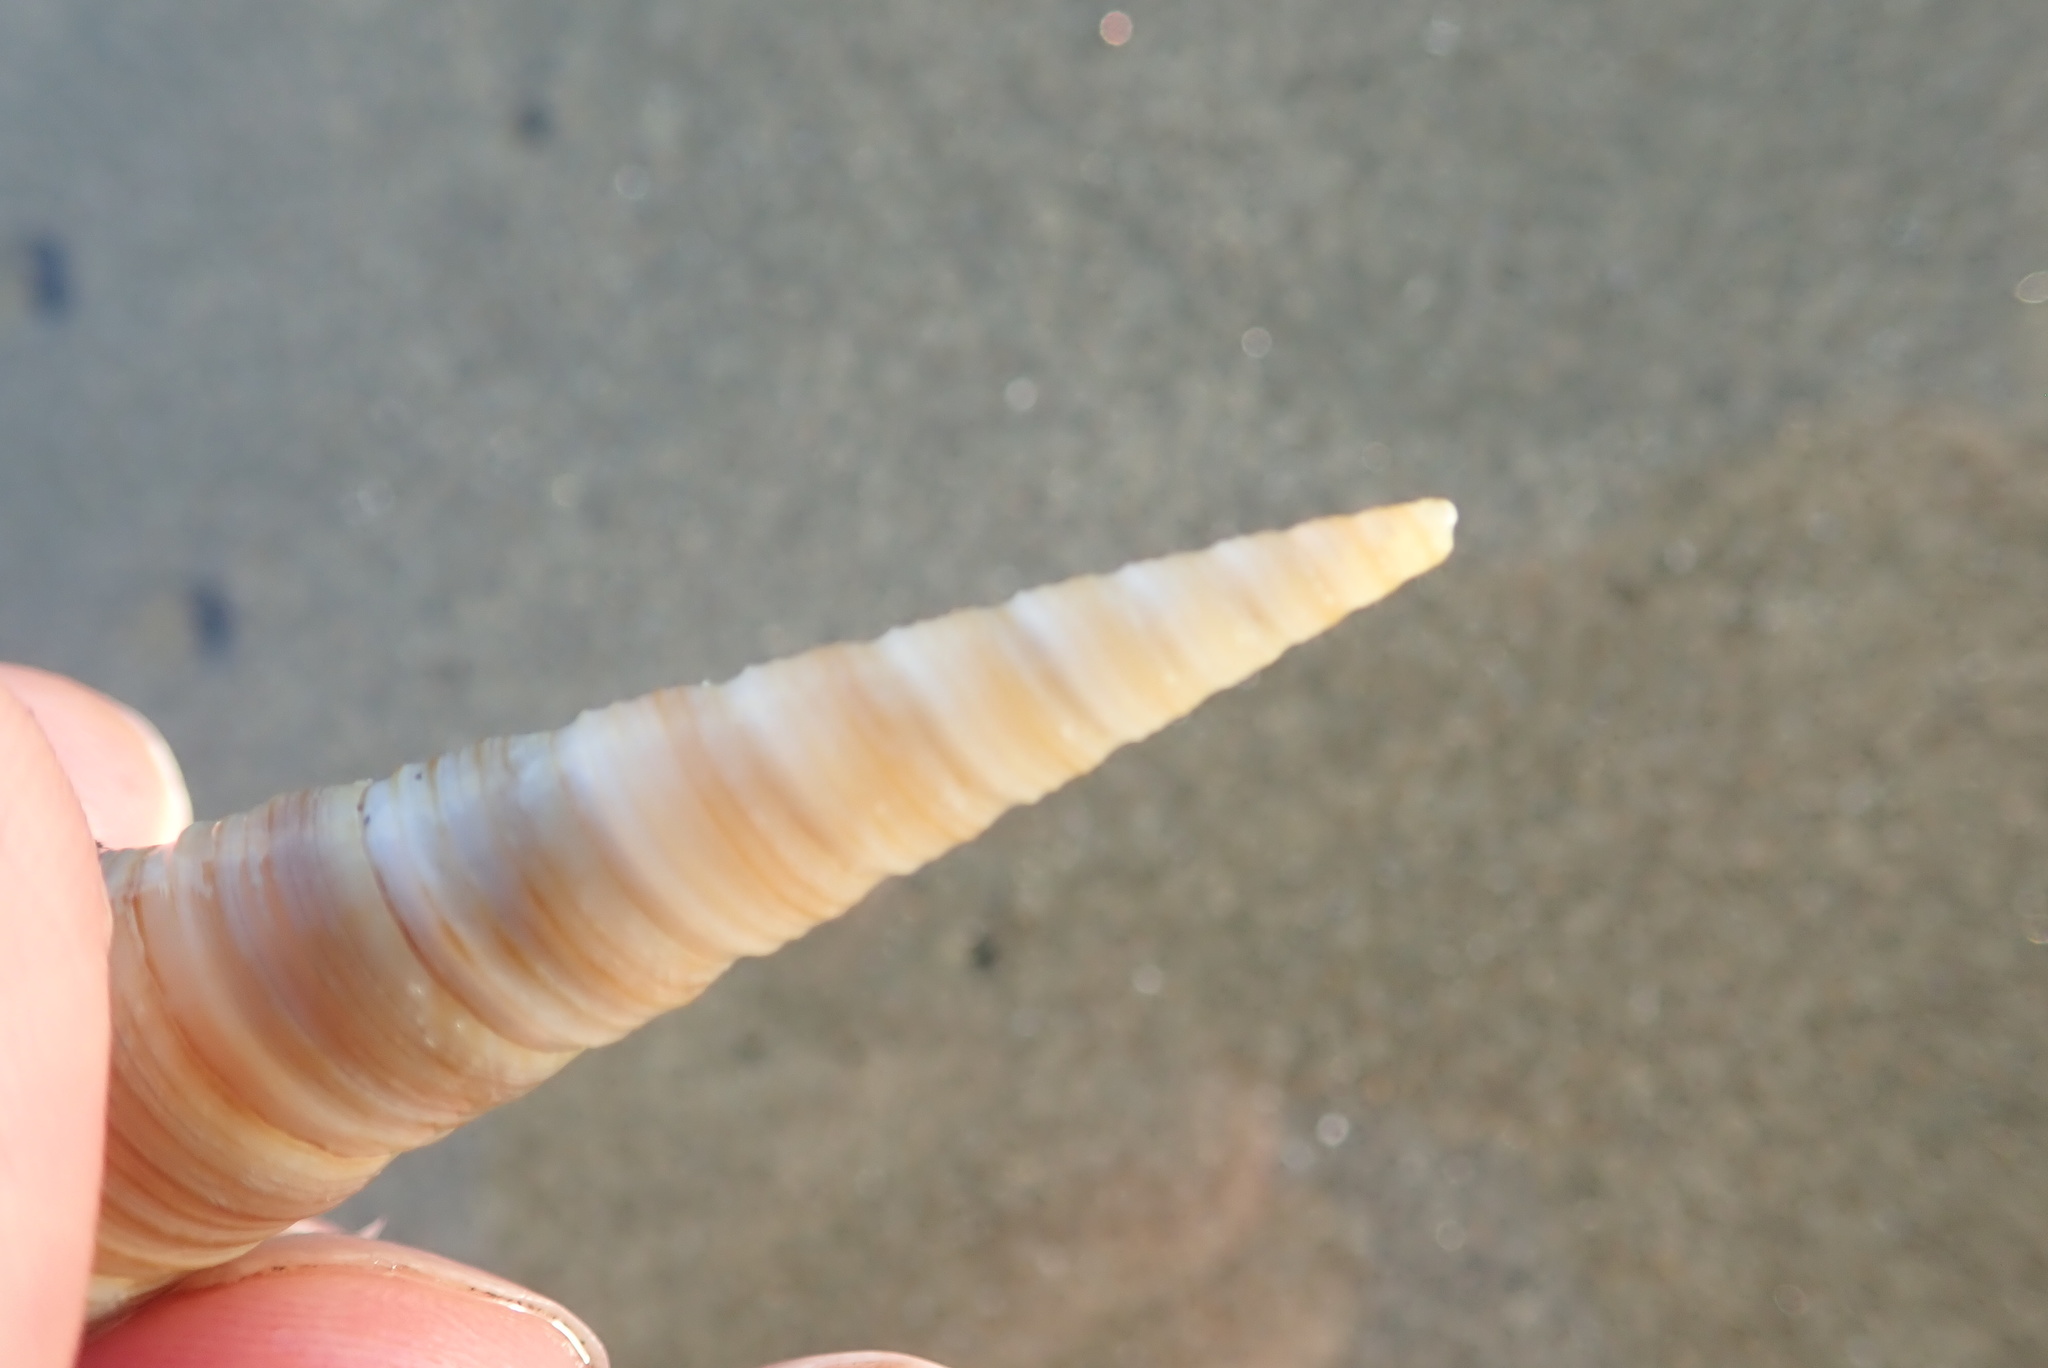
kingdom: Animalia
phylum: Mollusca
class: Gastropoda
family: Turritellidae
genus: Zeacolpus
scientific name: Zeacolpus vittatus
